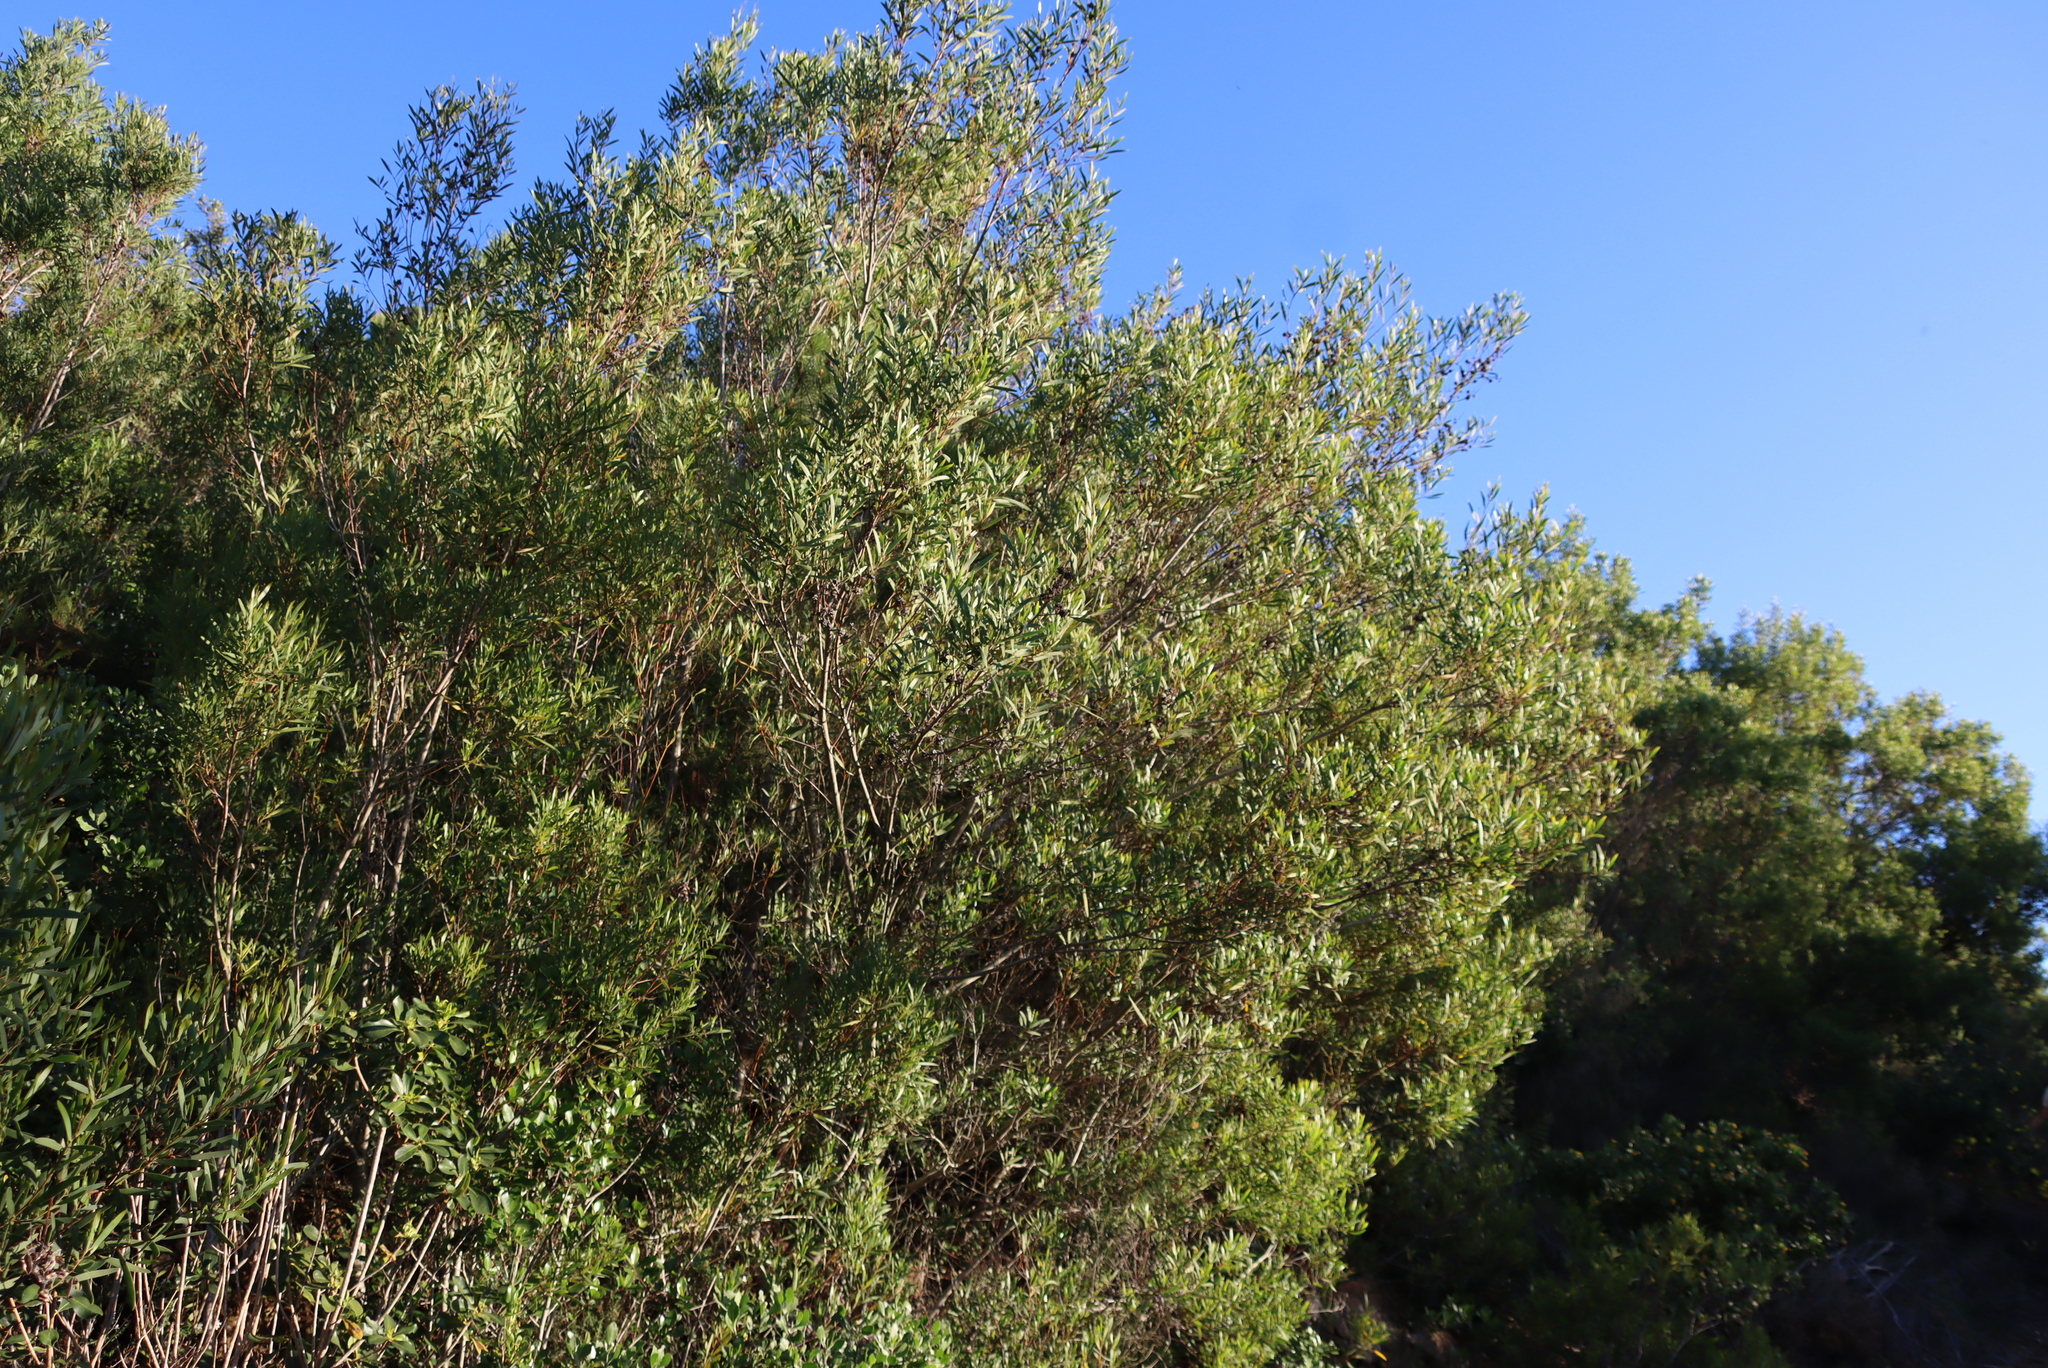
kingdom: Plantae
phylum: Tracheophyta
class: Magnoliopsida
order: Fabales
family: Fabaceae
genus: Acacia
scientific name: Acacia cyclops
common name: Coastal wattle
